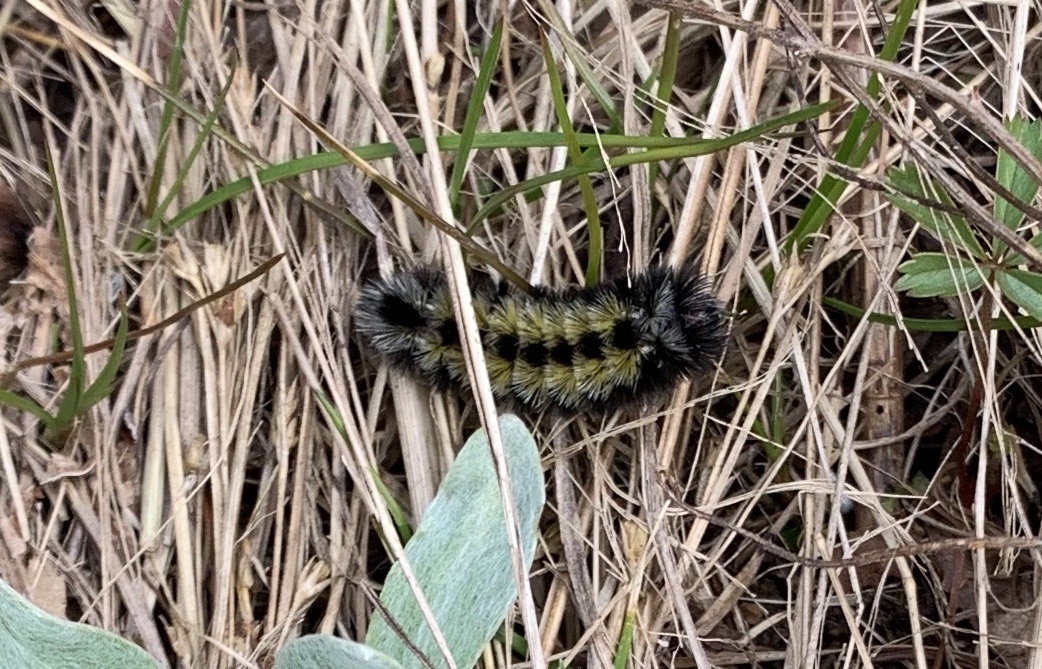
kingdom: Animalia
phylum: Arthropoda
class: Insecta
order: Lepidoptera
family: Erebidae
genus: Ctenucha
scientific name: Ctenucha virginica
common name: Virginia ctenucha moth
